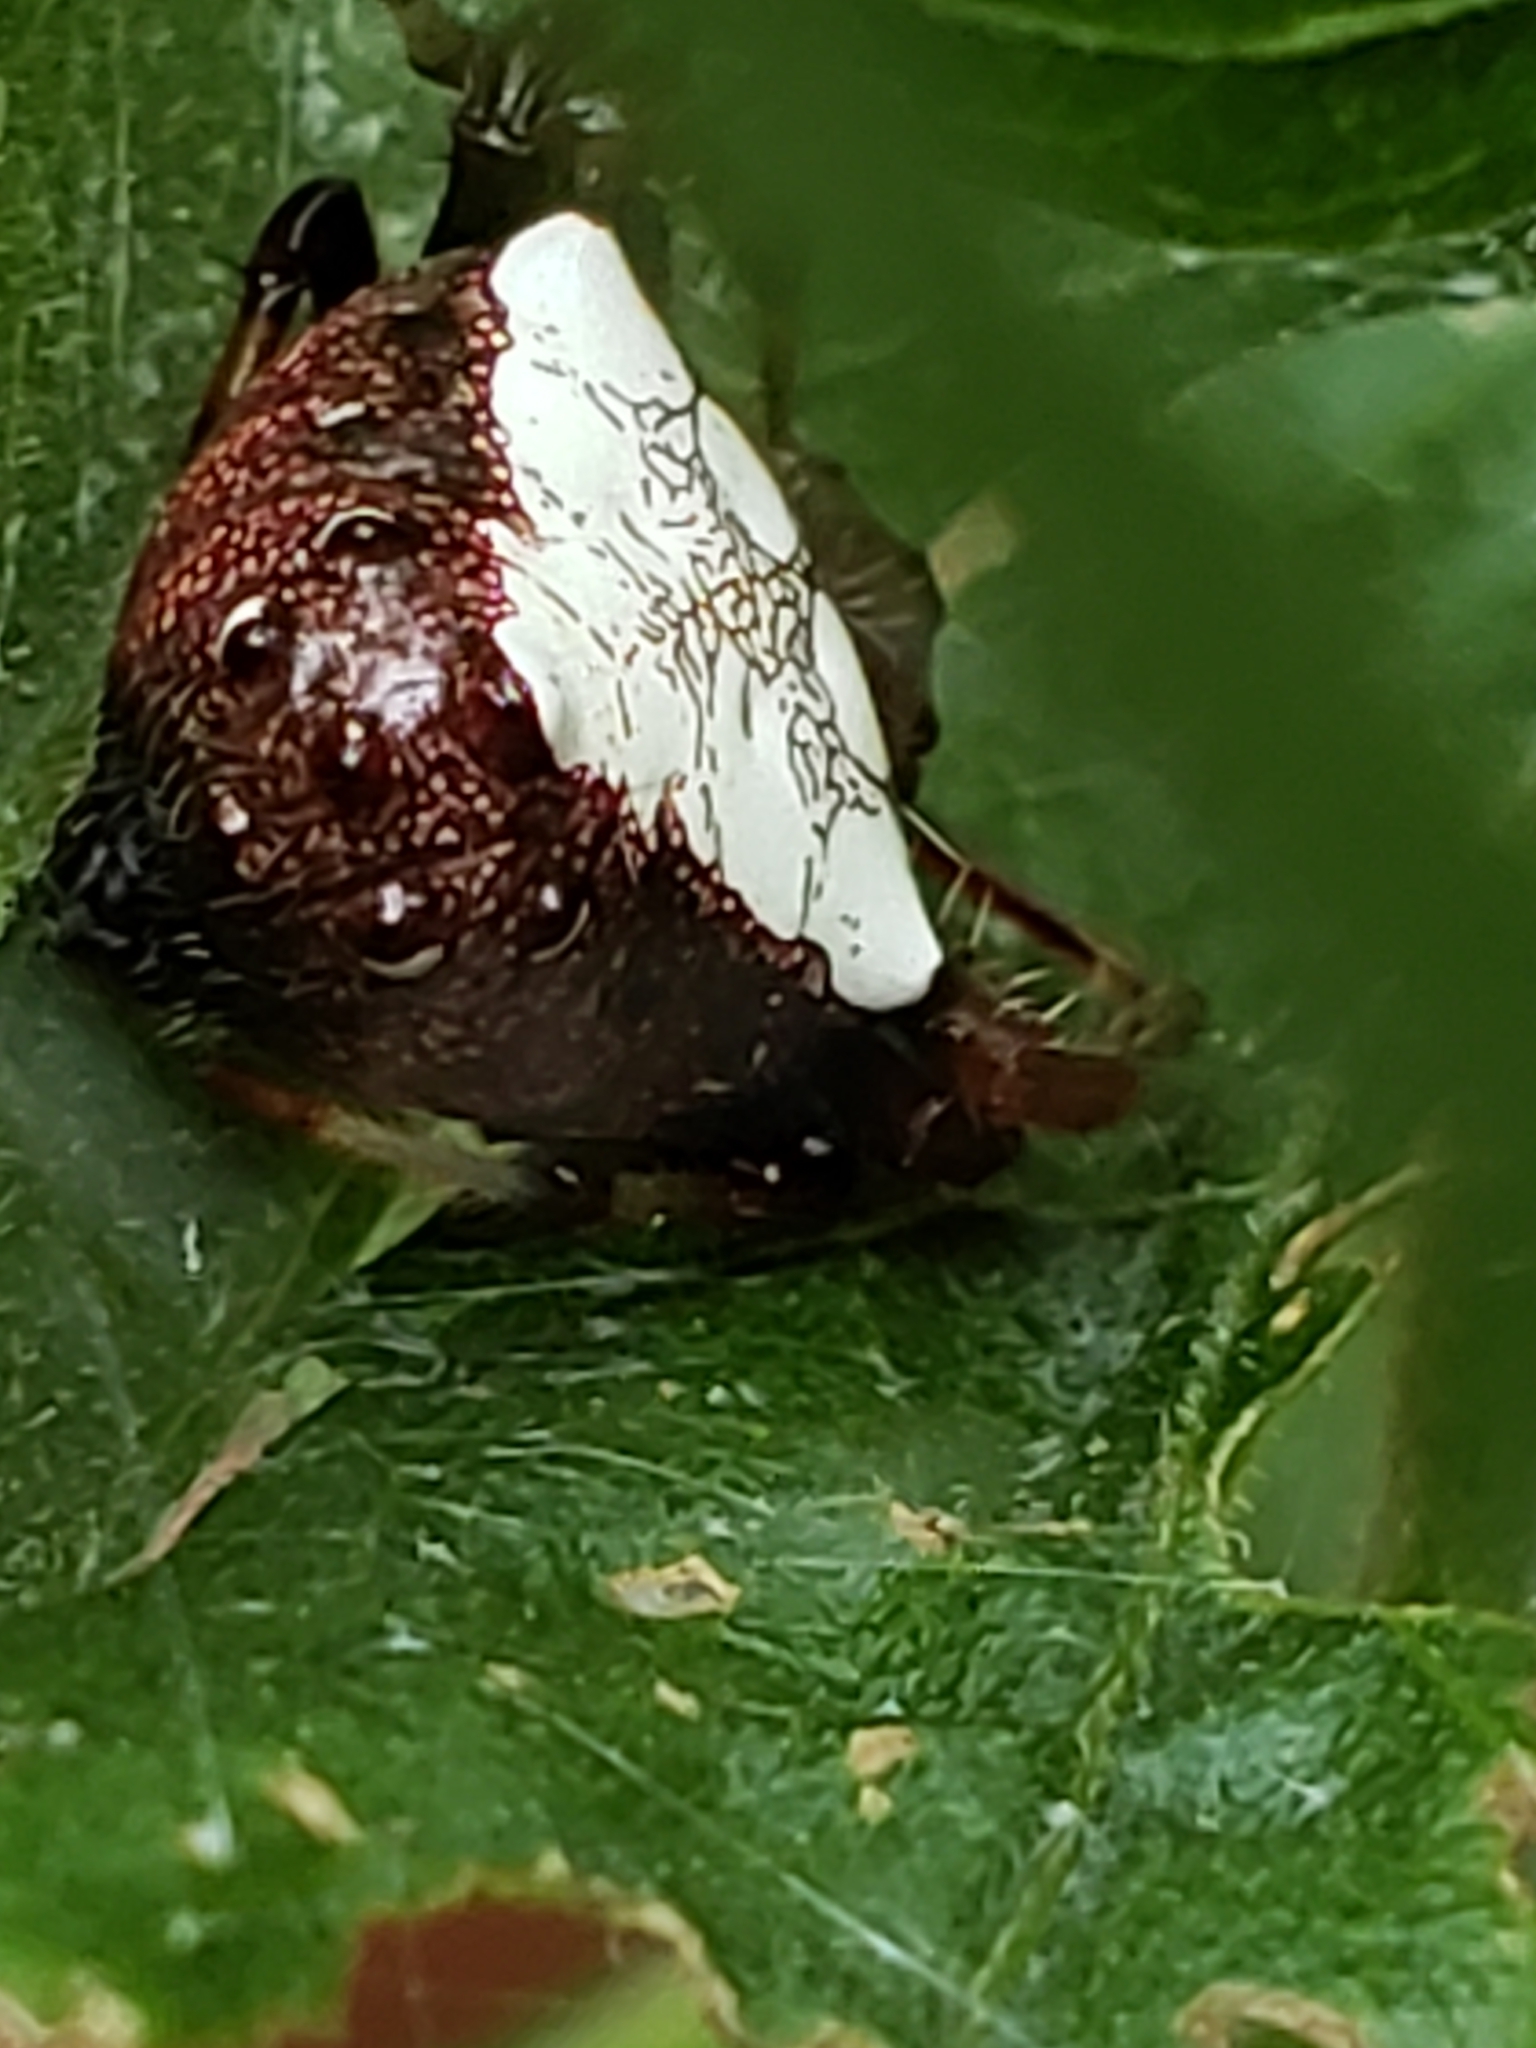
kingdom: Animalia
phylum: Arthropoda
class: Arachnida
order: Araneae
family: Araneidae
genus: Verrucosa
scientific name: Verrucosa arenata
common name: Orb weavers
